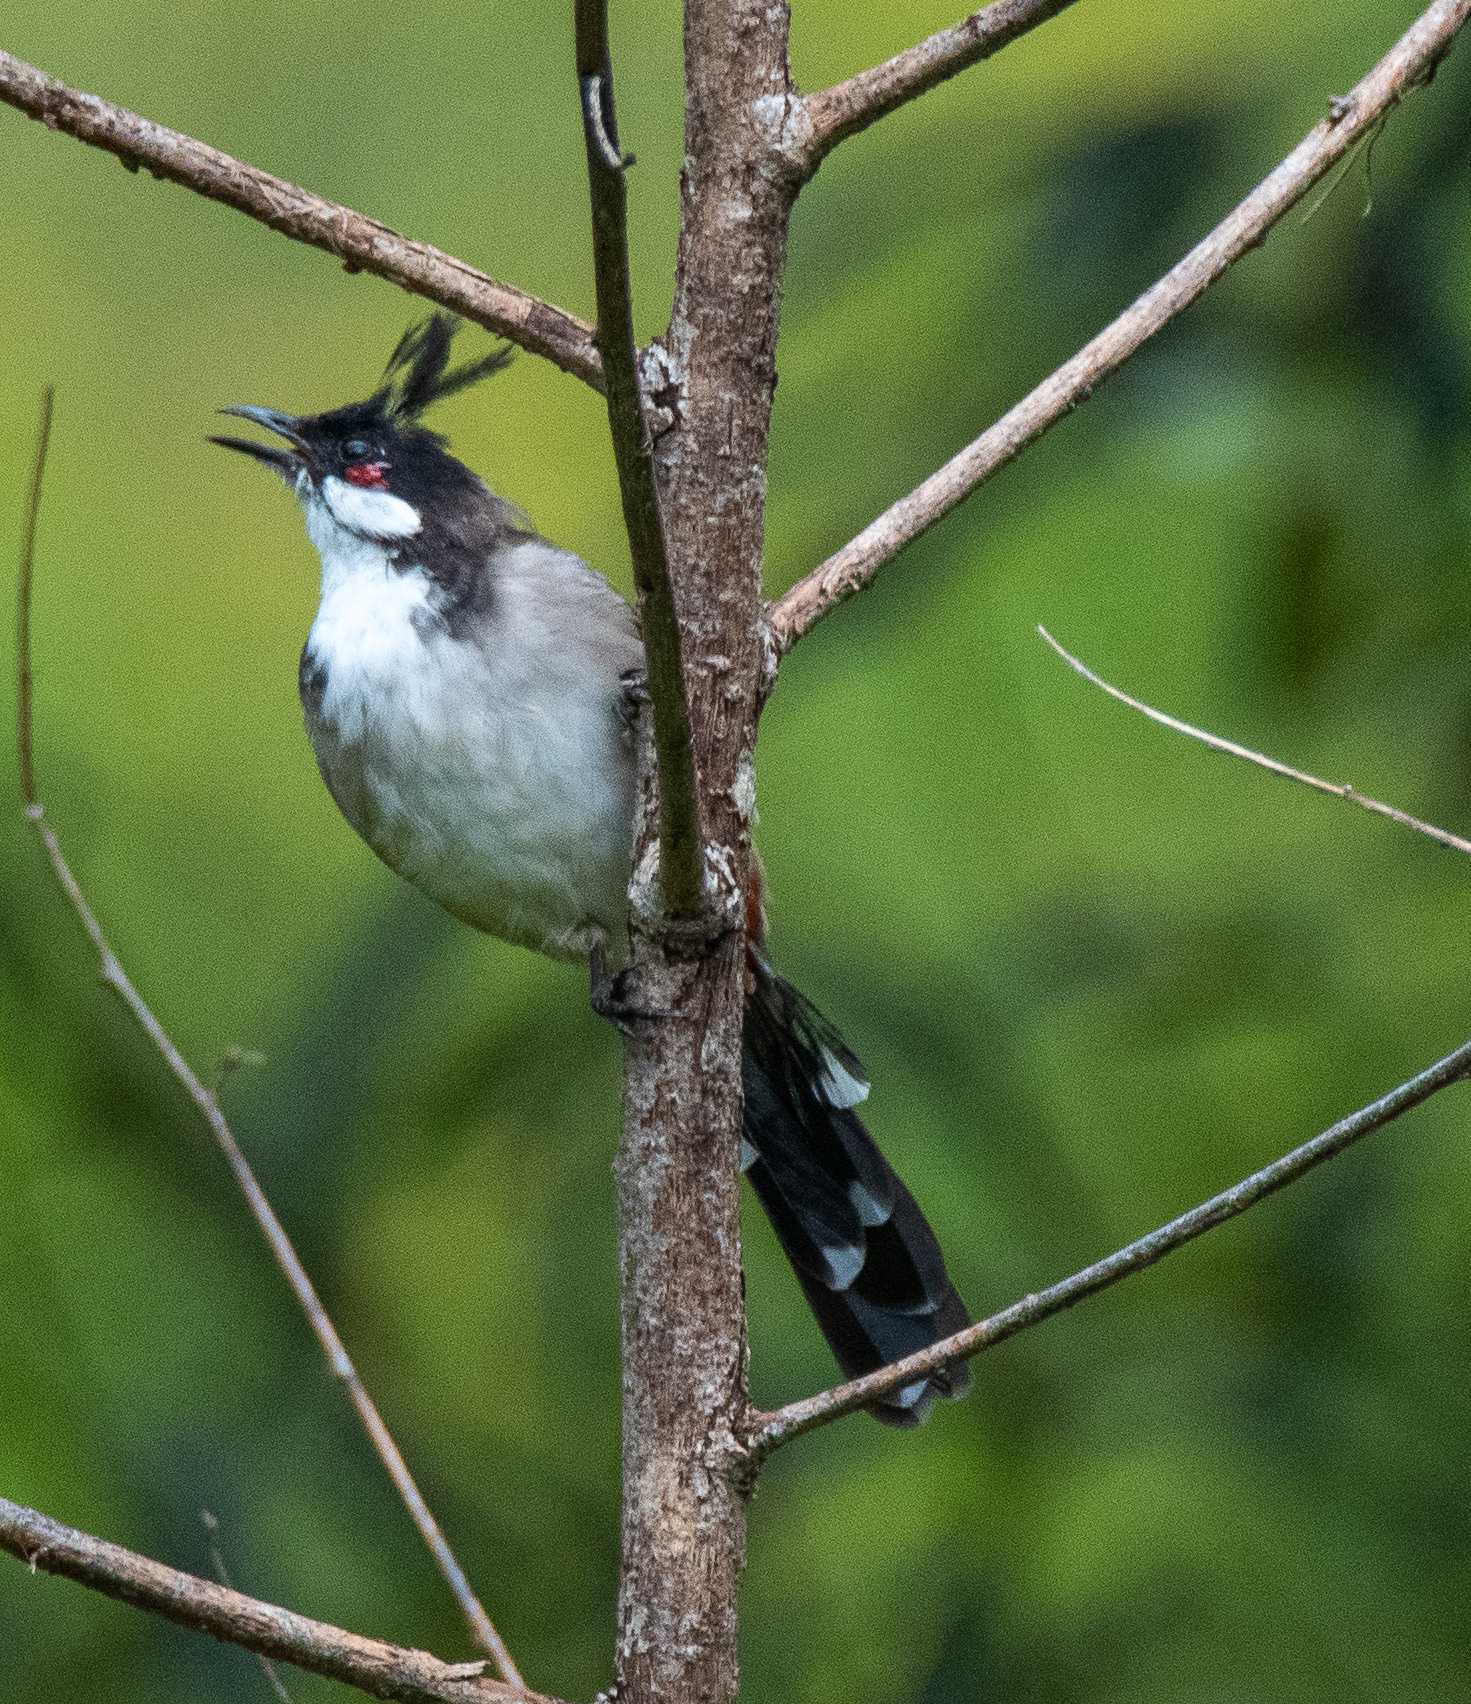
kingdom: Animalia
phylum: Chordata
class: Aves
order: Passeriformes
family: Pycnonotidae
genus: Pycnonotus
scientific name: Pycnonotus jocosus
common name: Red-whiskered bulbul
